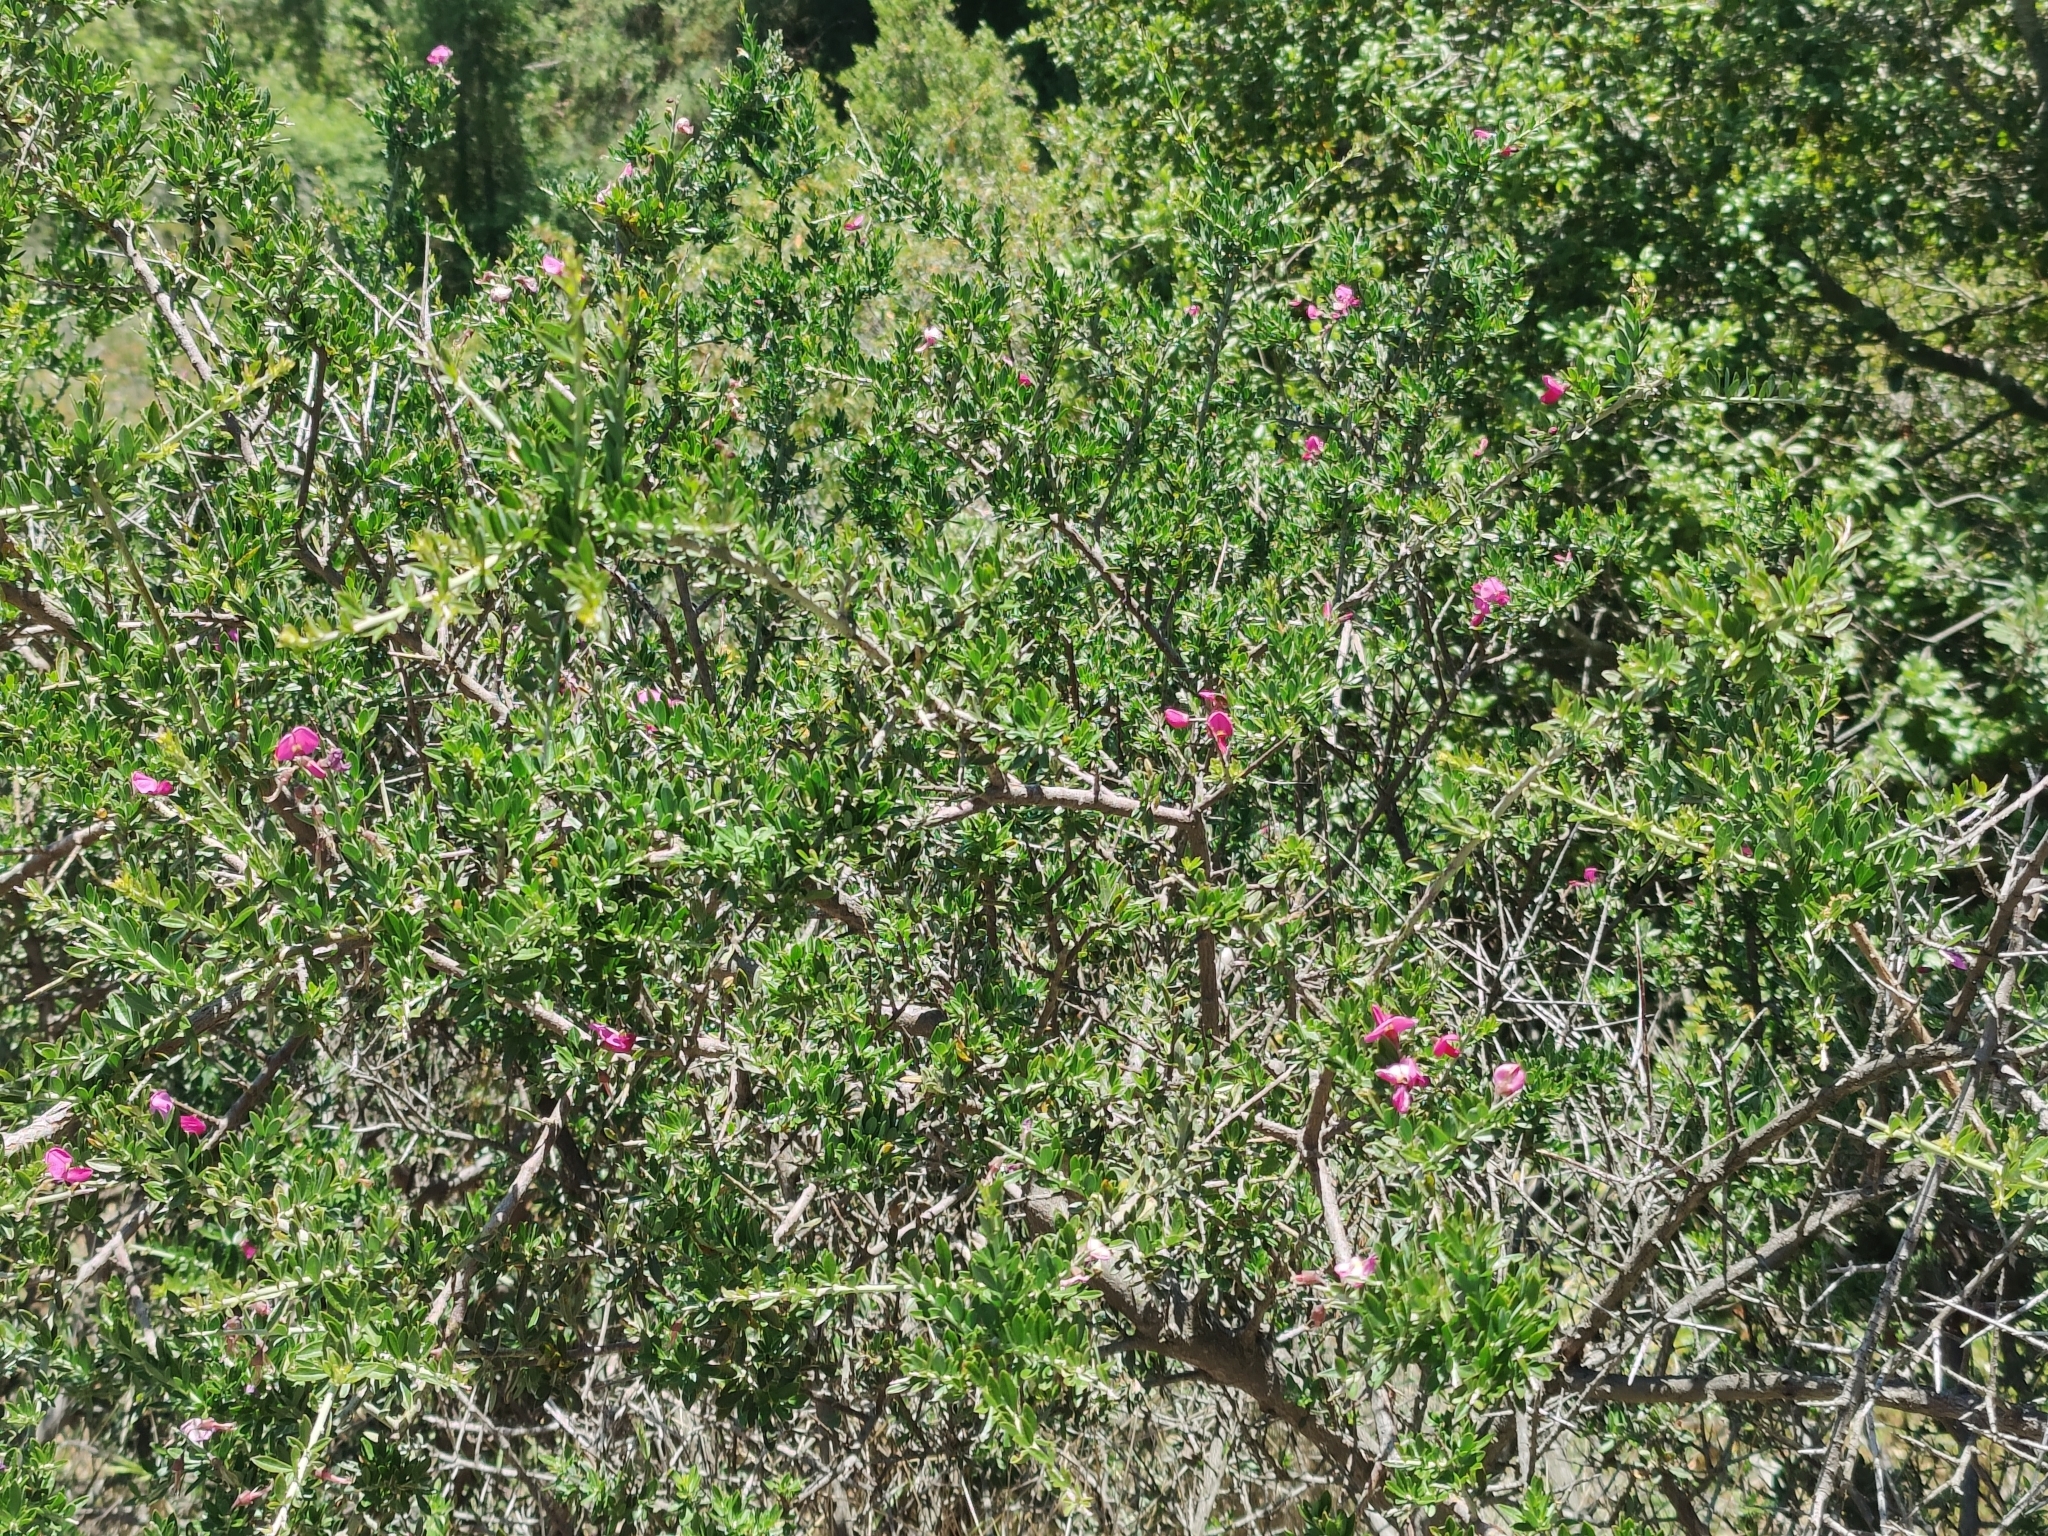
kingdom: Plantae
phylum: Tracheophyta
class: Magnoliopsida
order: Fabales
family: Fabaceae
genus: Pickeringia
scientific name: Pickeringia montana
